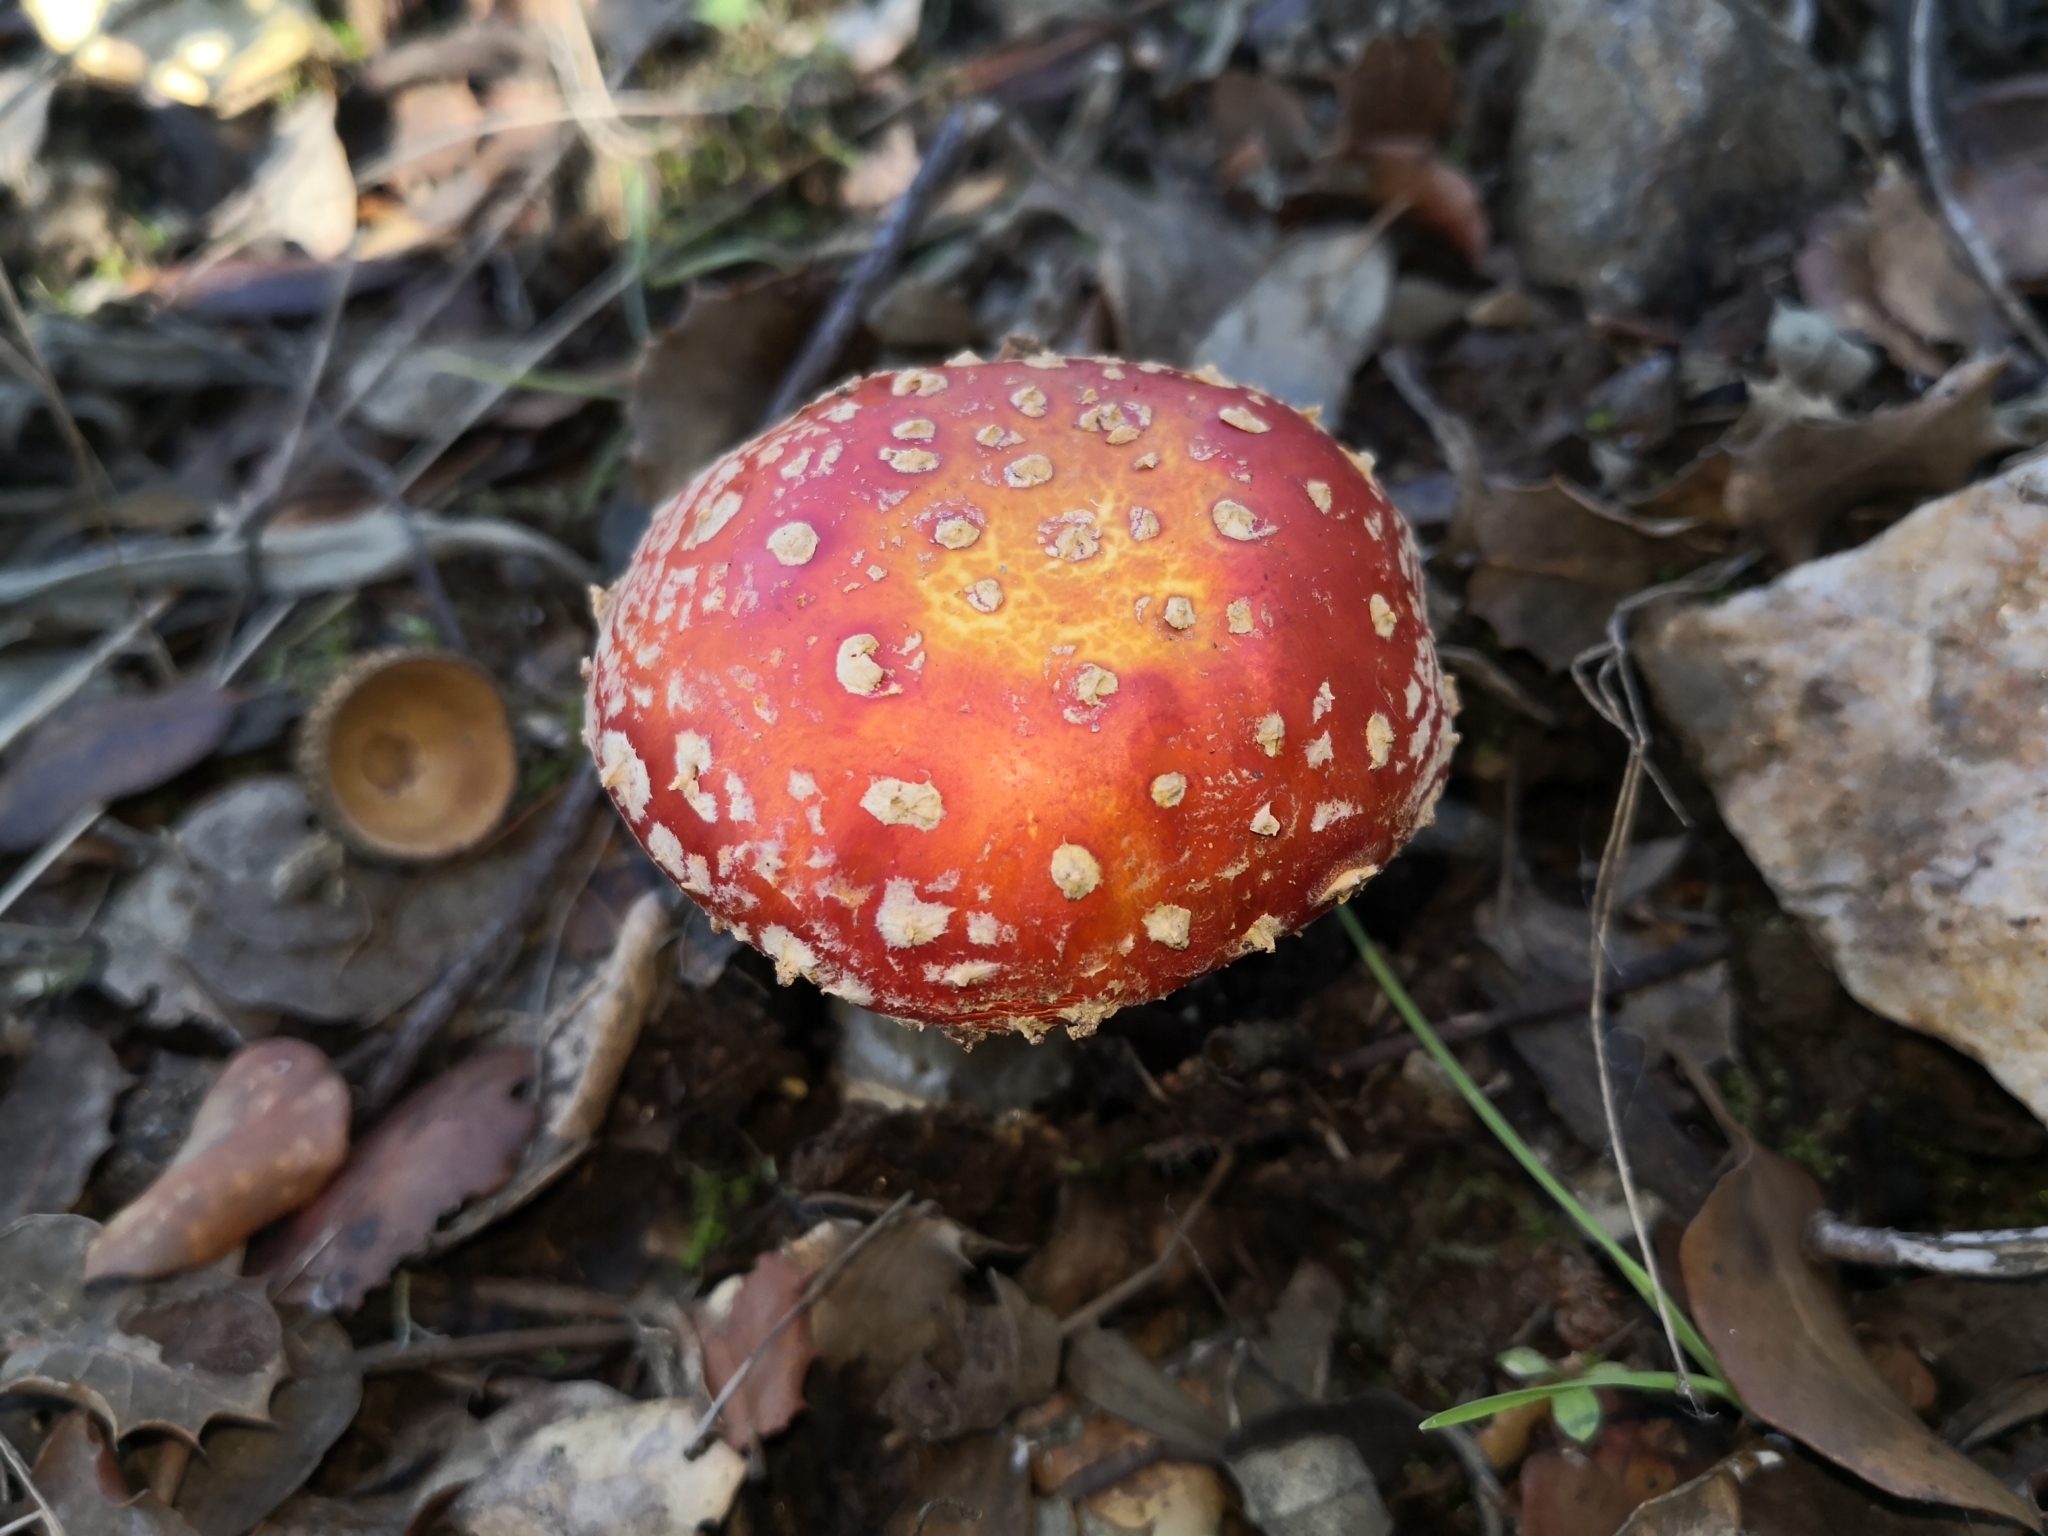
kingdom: Fungi
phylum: Basidiomycota
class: Agaricomycetes
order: Agaricales
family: Amanitaceae
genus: Amanita
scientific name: Amanita muscaria
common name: Fly agaric
